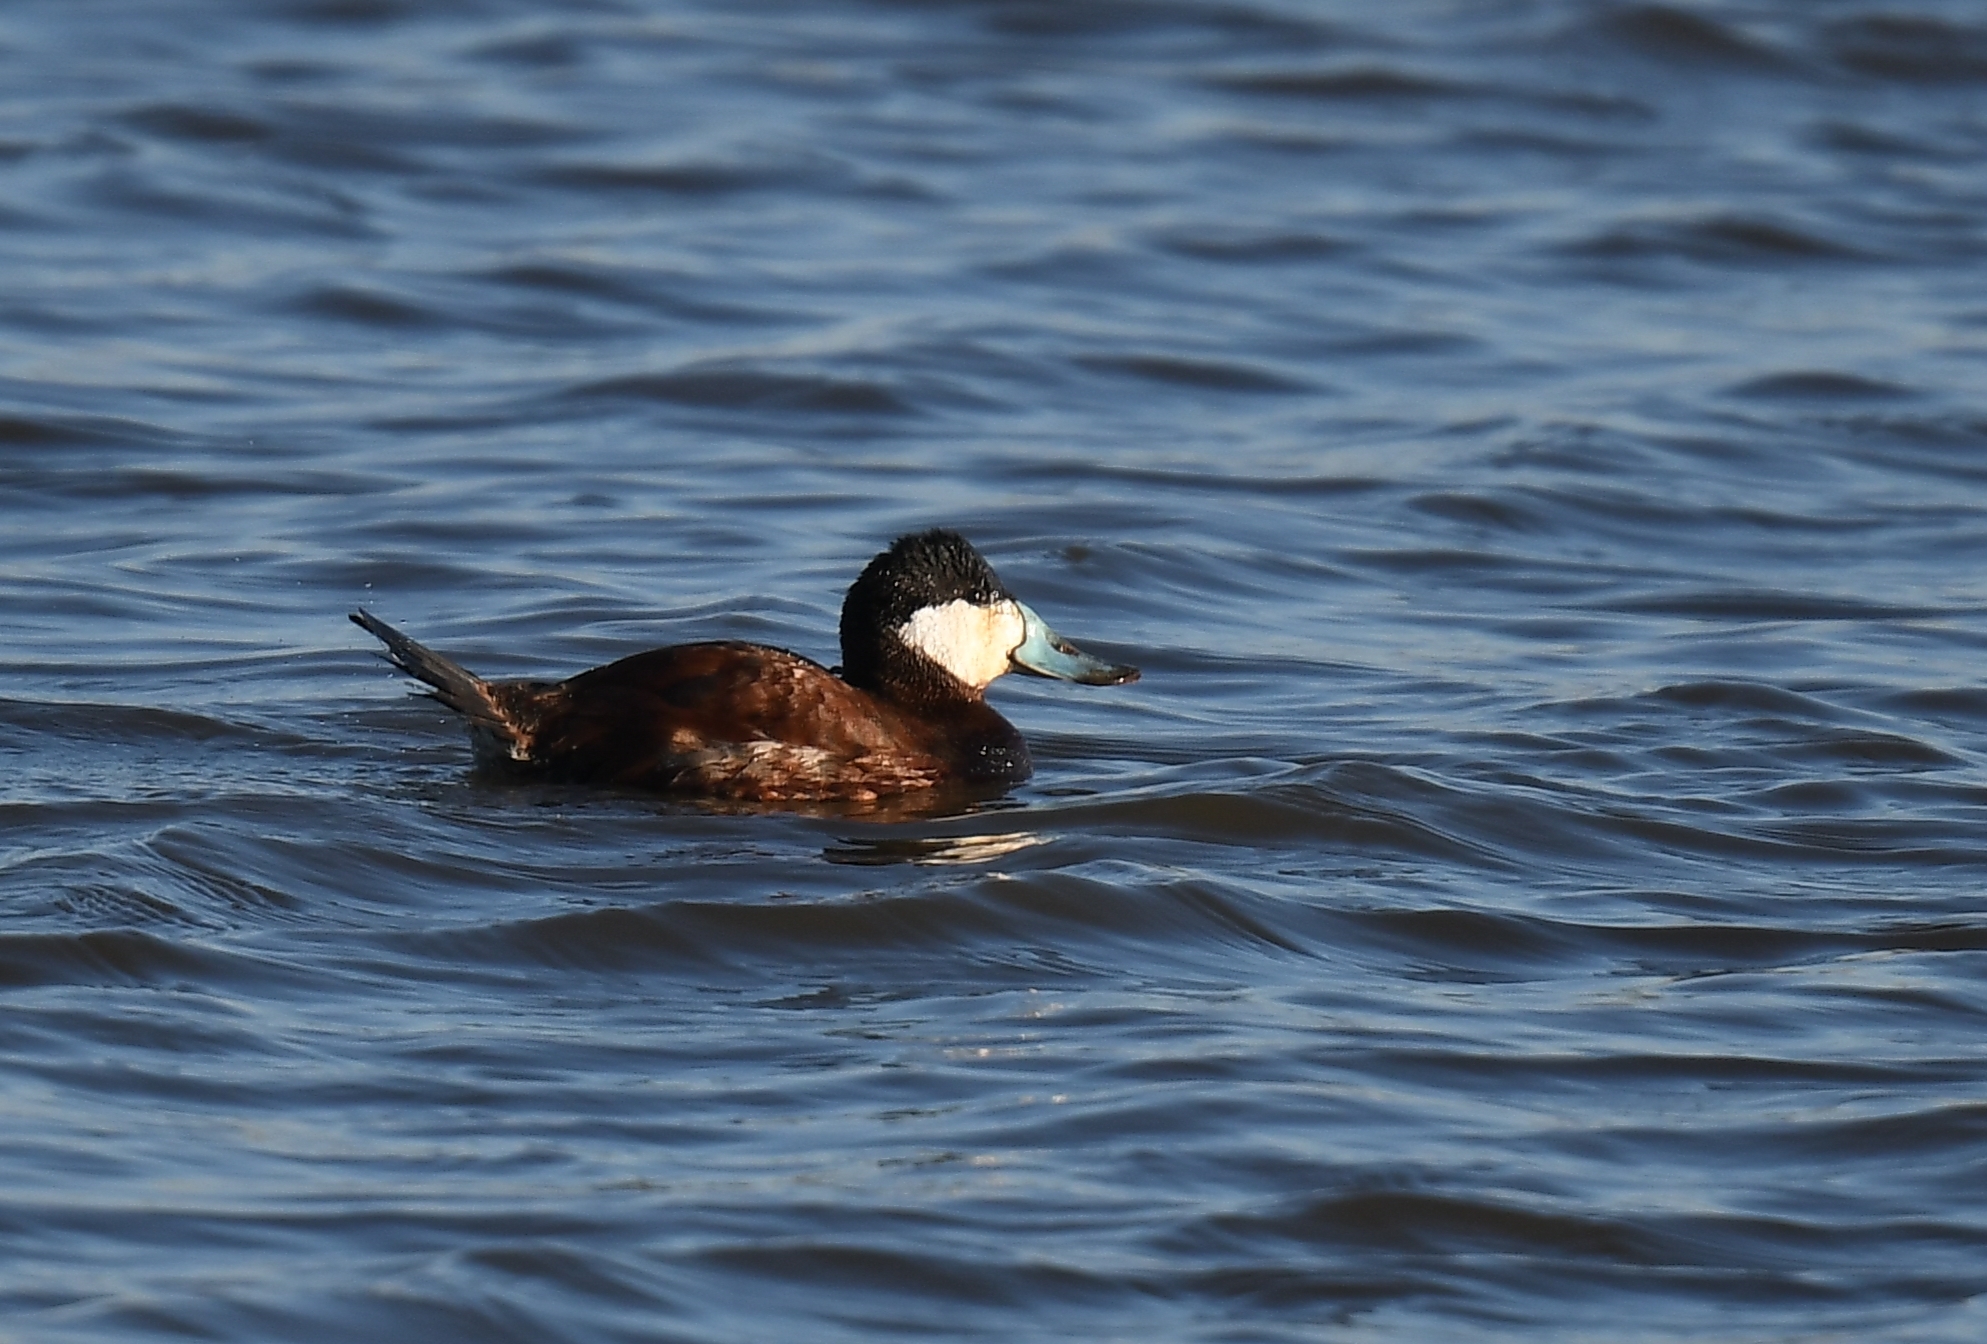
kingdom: Animalia
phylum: Chordata
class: Aves
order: Anseriformes
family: Anatidae
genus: Oxyura
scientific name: Oxyura jamaicensis
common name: Ruddy duck
